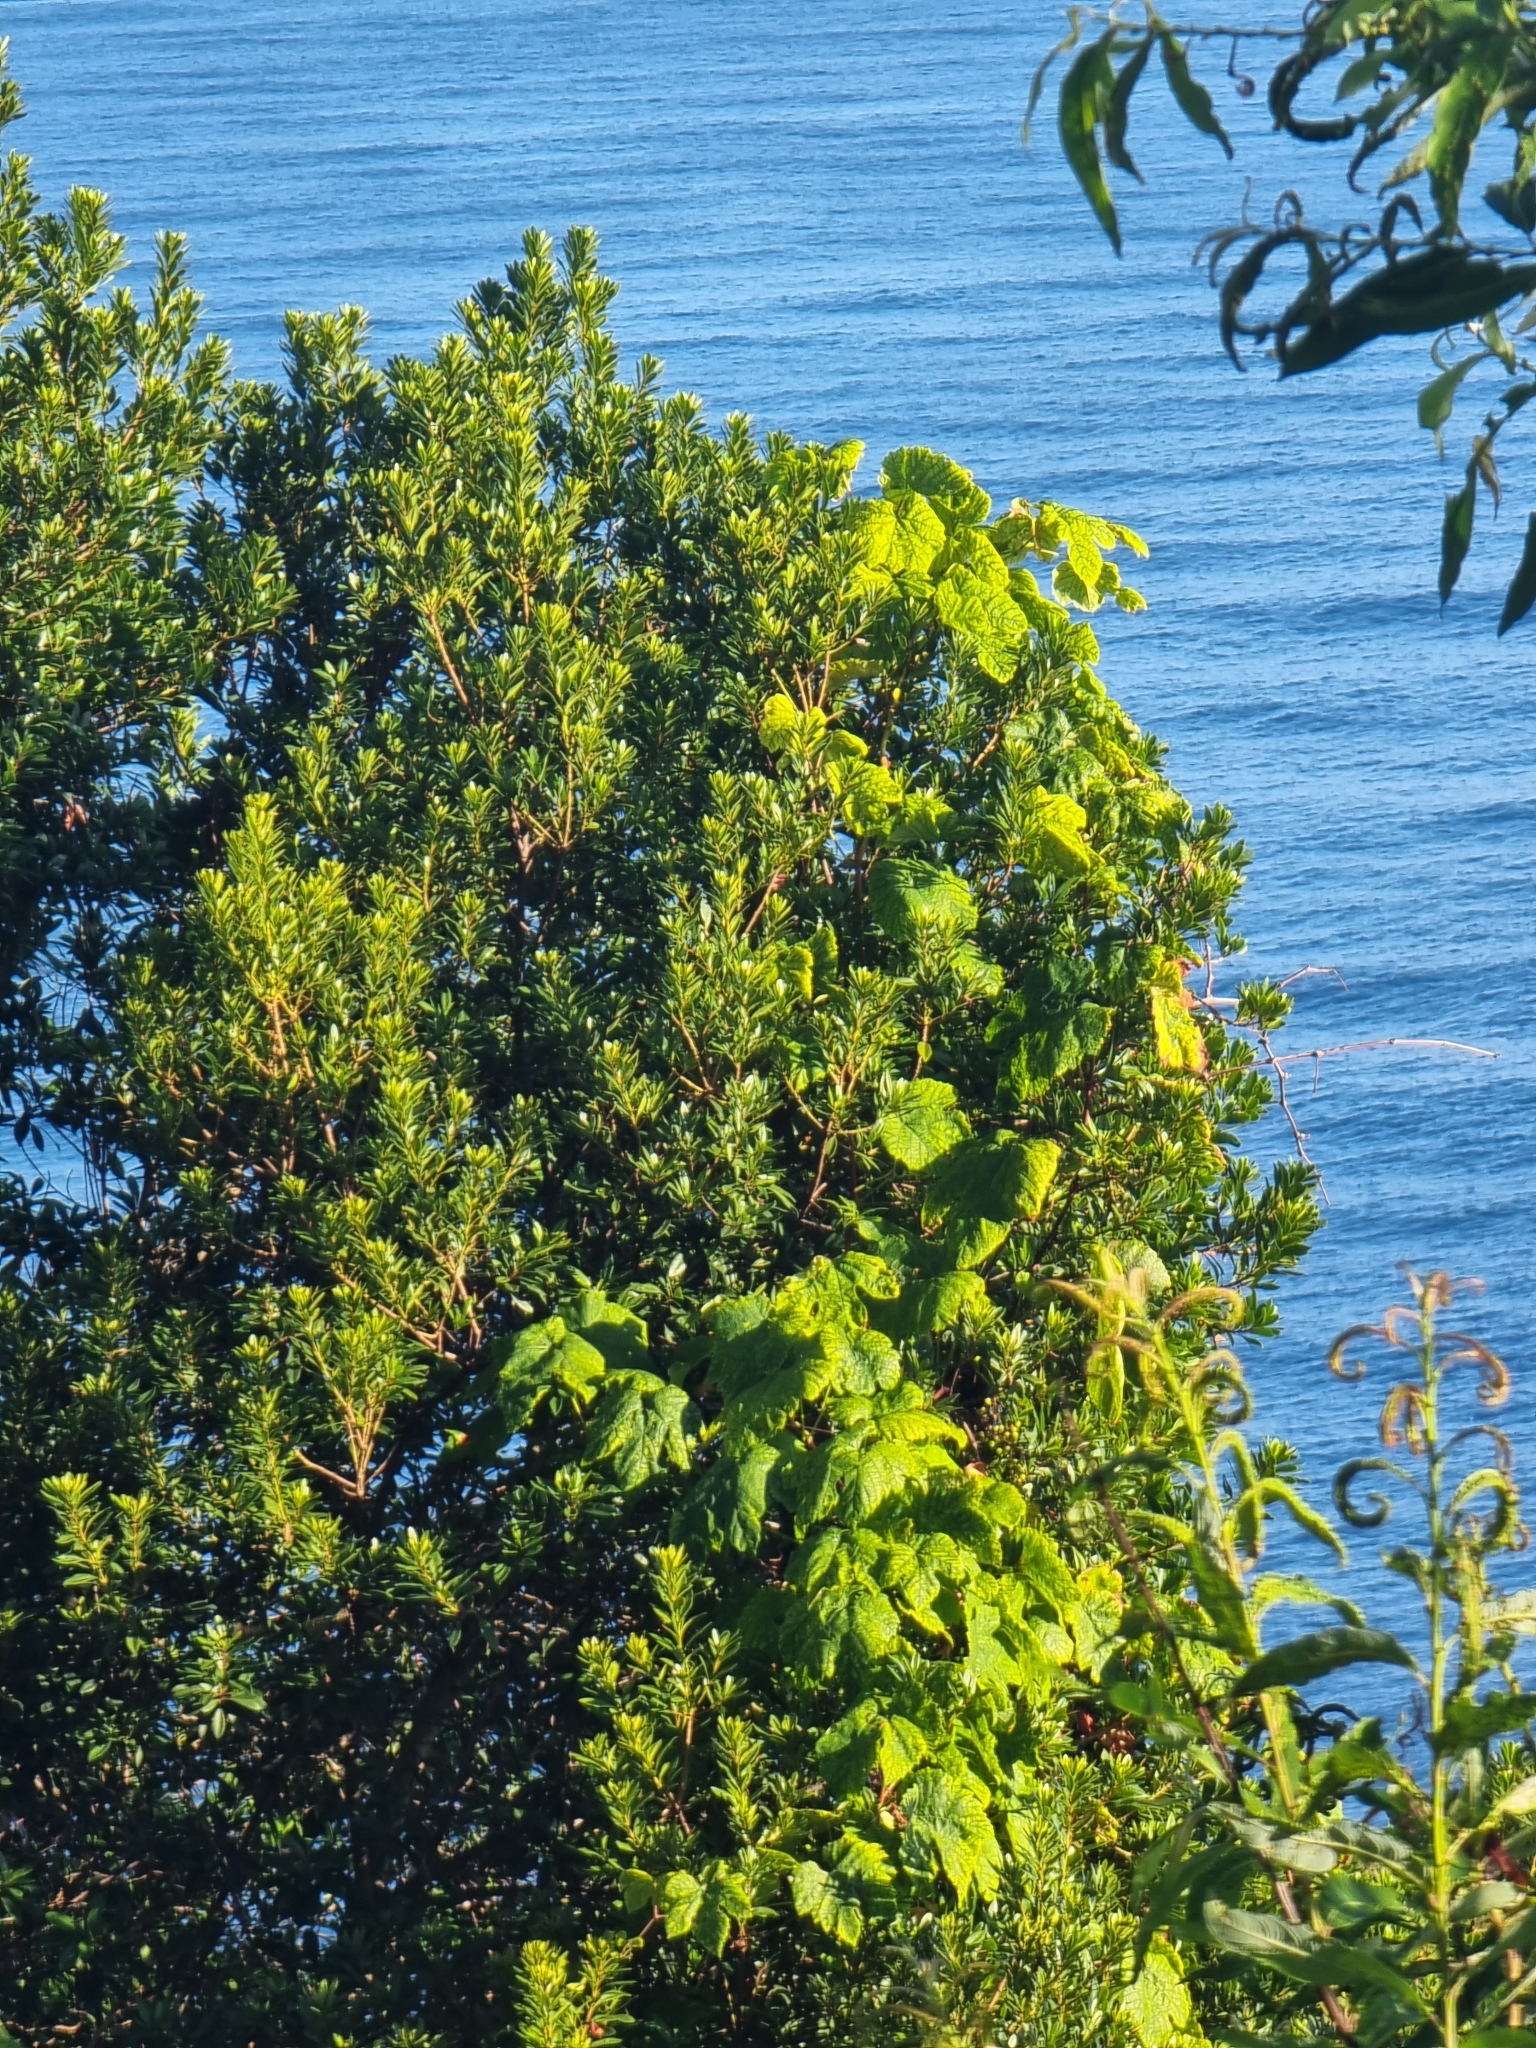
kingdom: Plantae
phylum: Tracheophyta
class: Magnoliopsida
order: Fagales
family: Myricaceae
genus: Morella
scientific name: Morella faya
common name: Firetree
